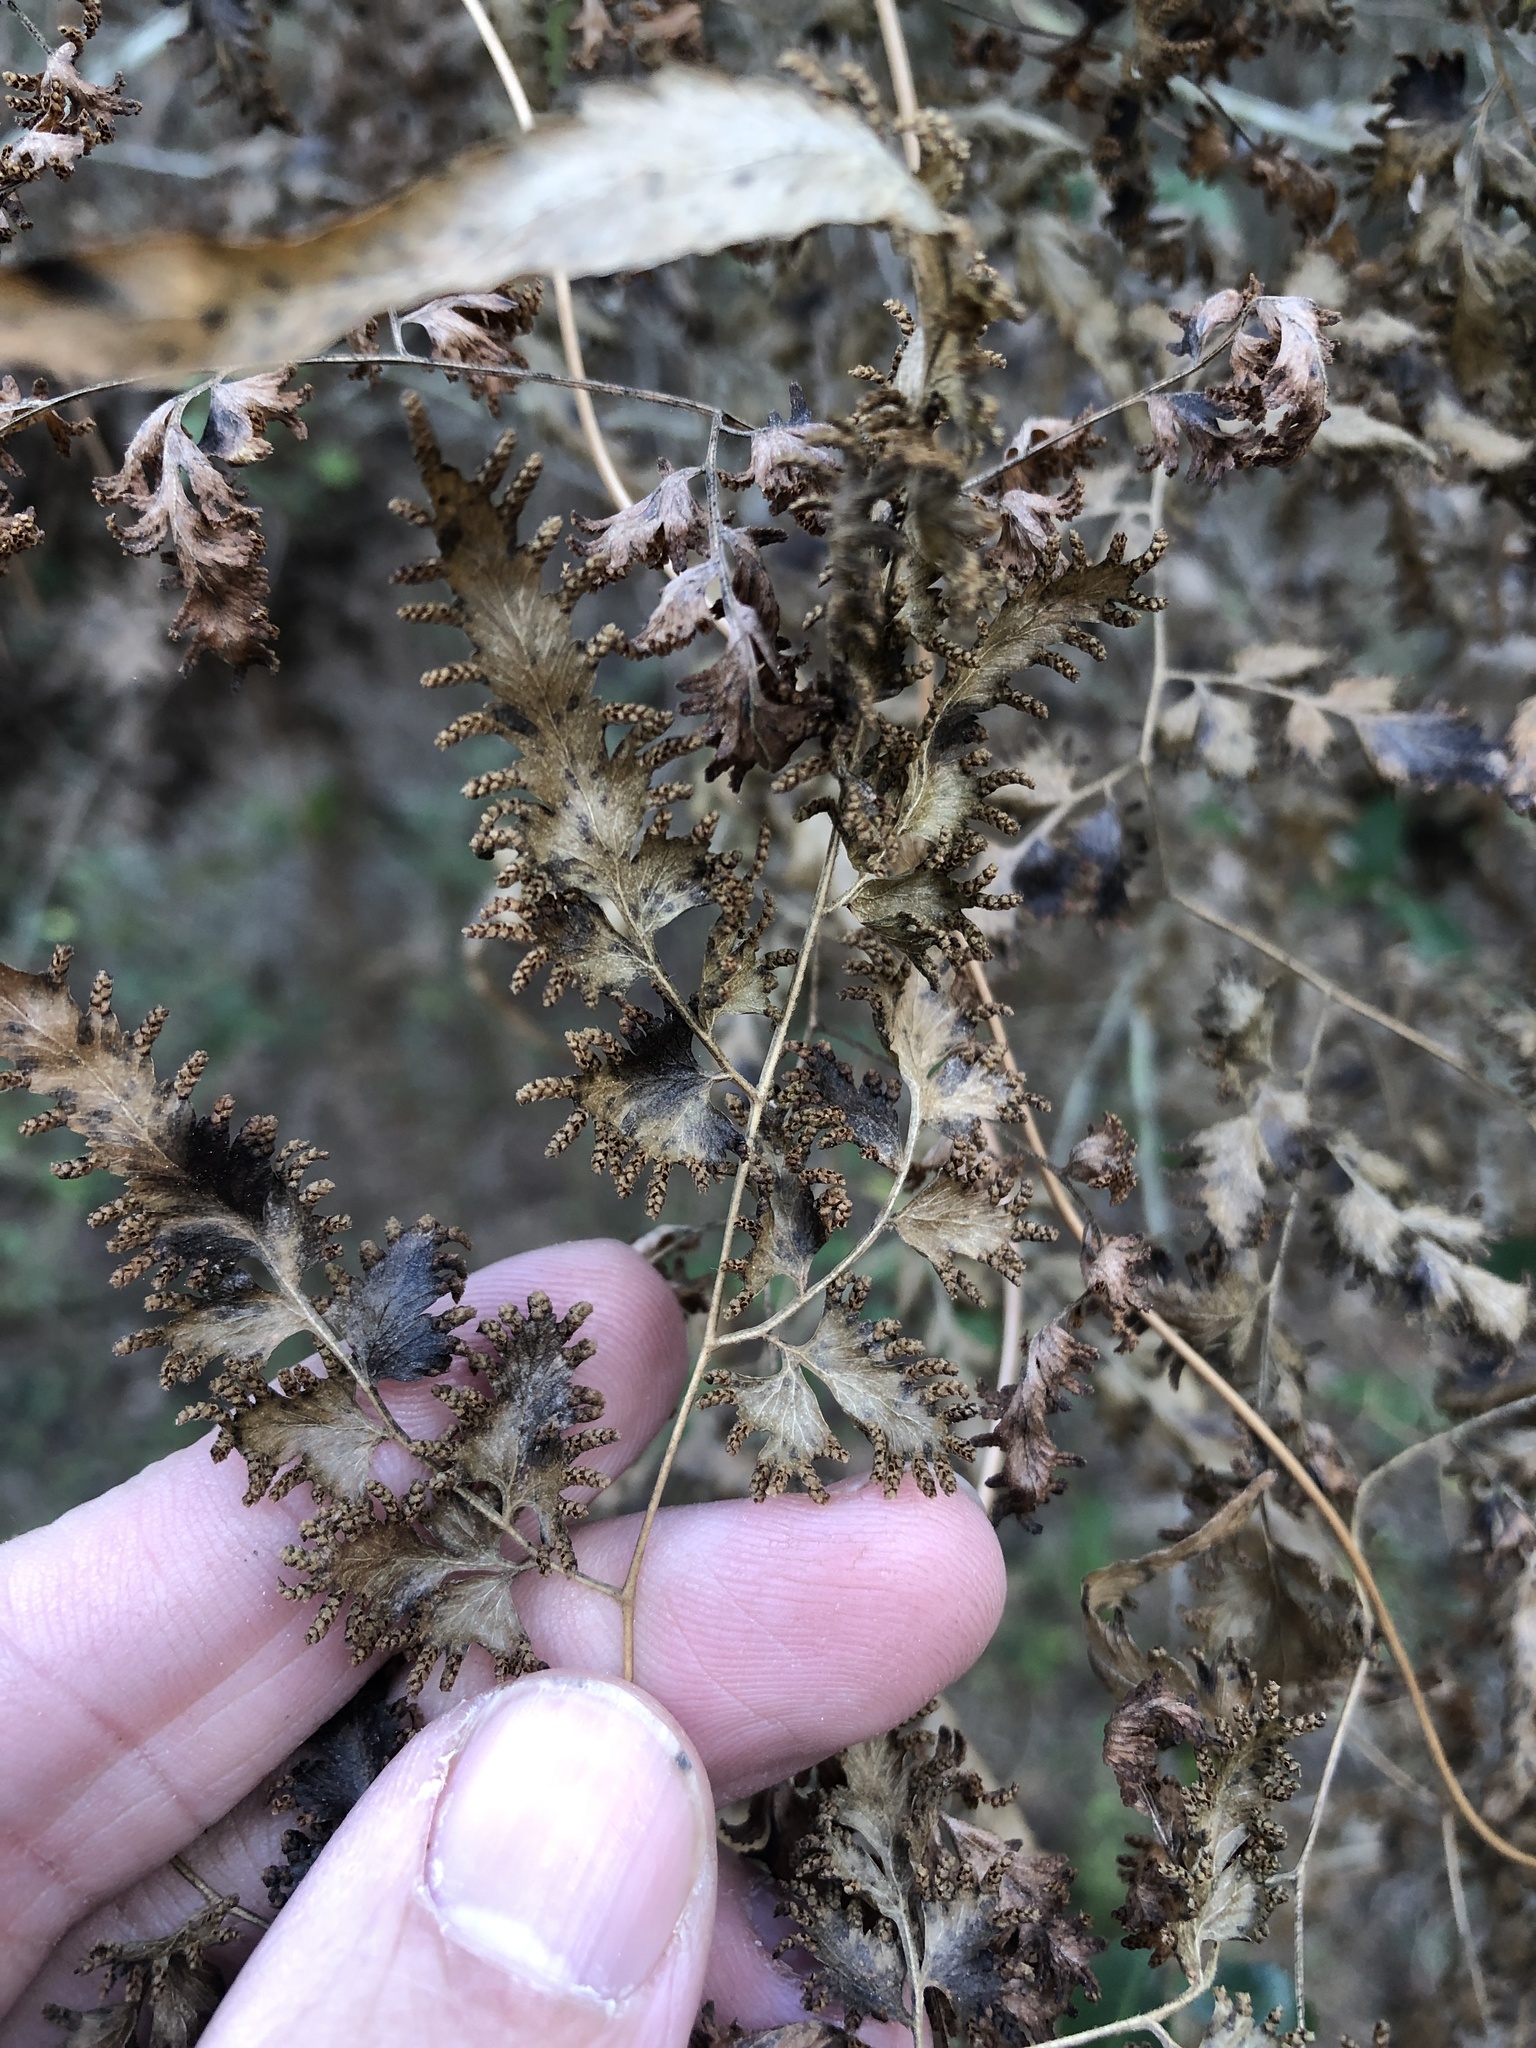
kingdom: Plantae
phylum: Tracheophyta
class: Polypodiopsida
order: Schizaeales
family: Lygodiaceae
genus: Lygodium
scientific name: Lygodium japonicum
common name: Japanese climbing fern
